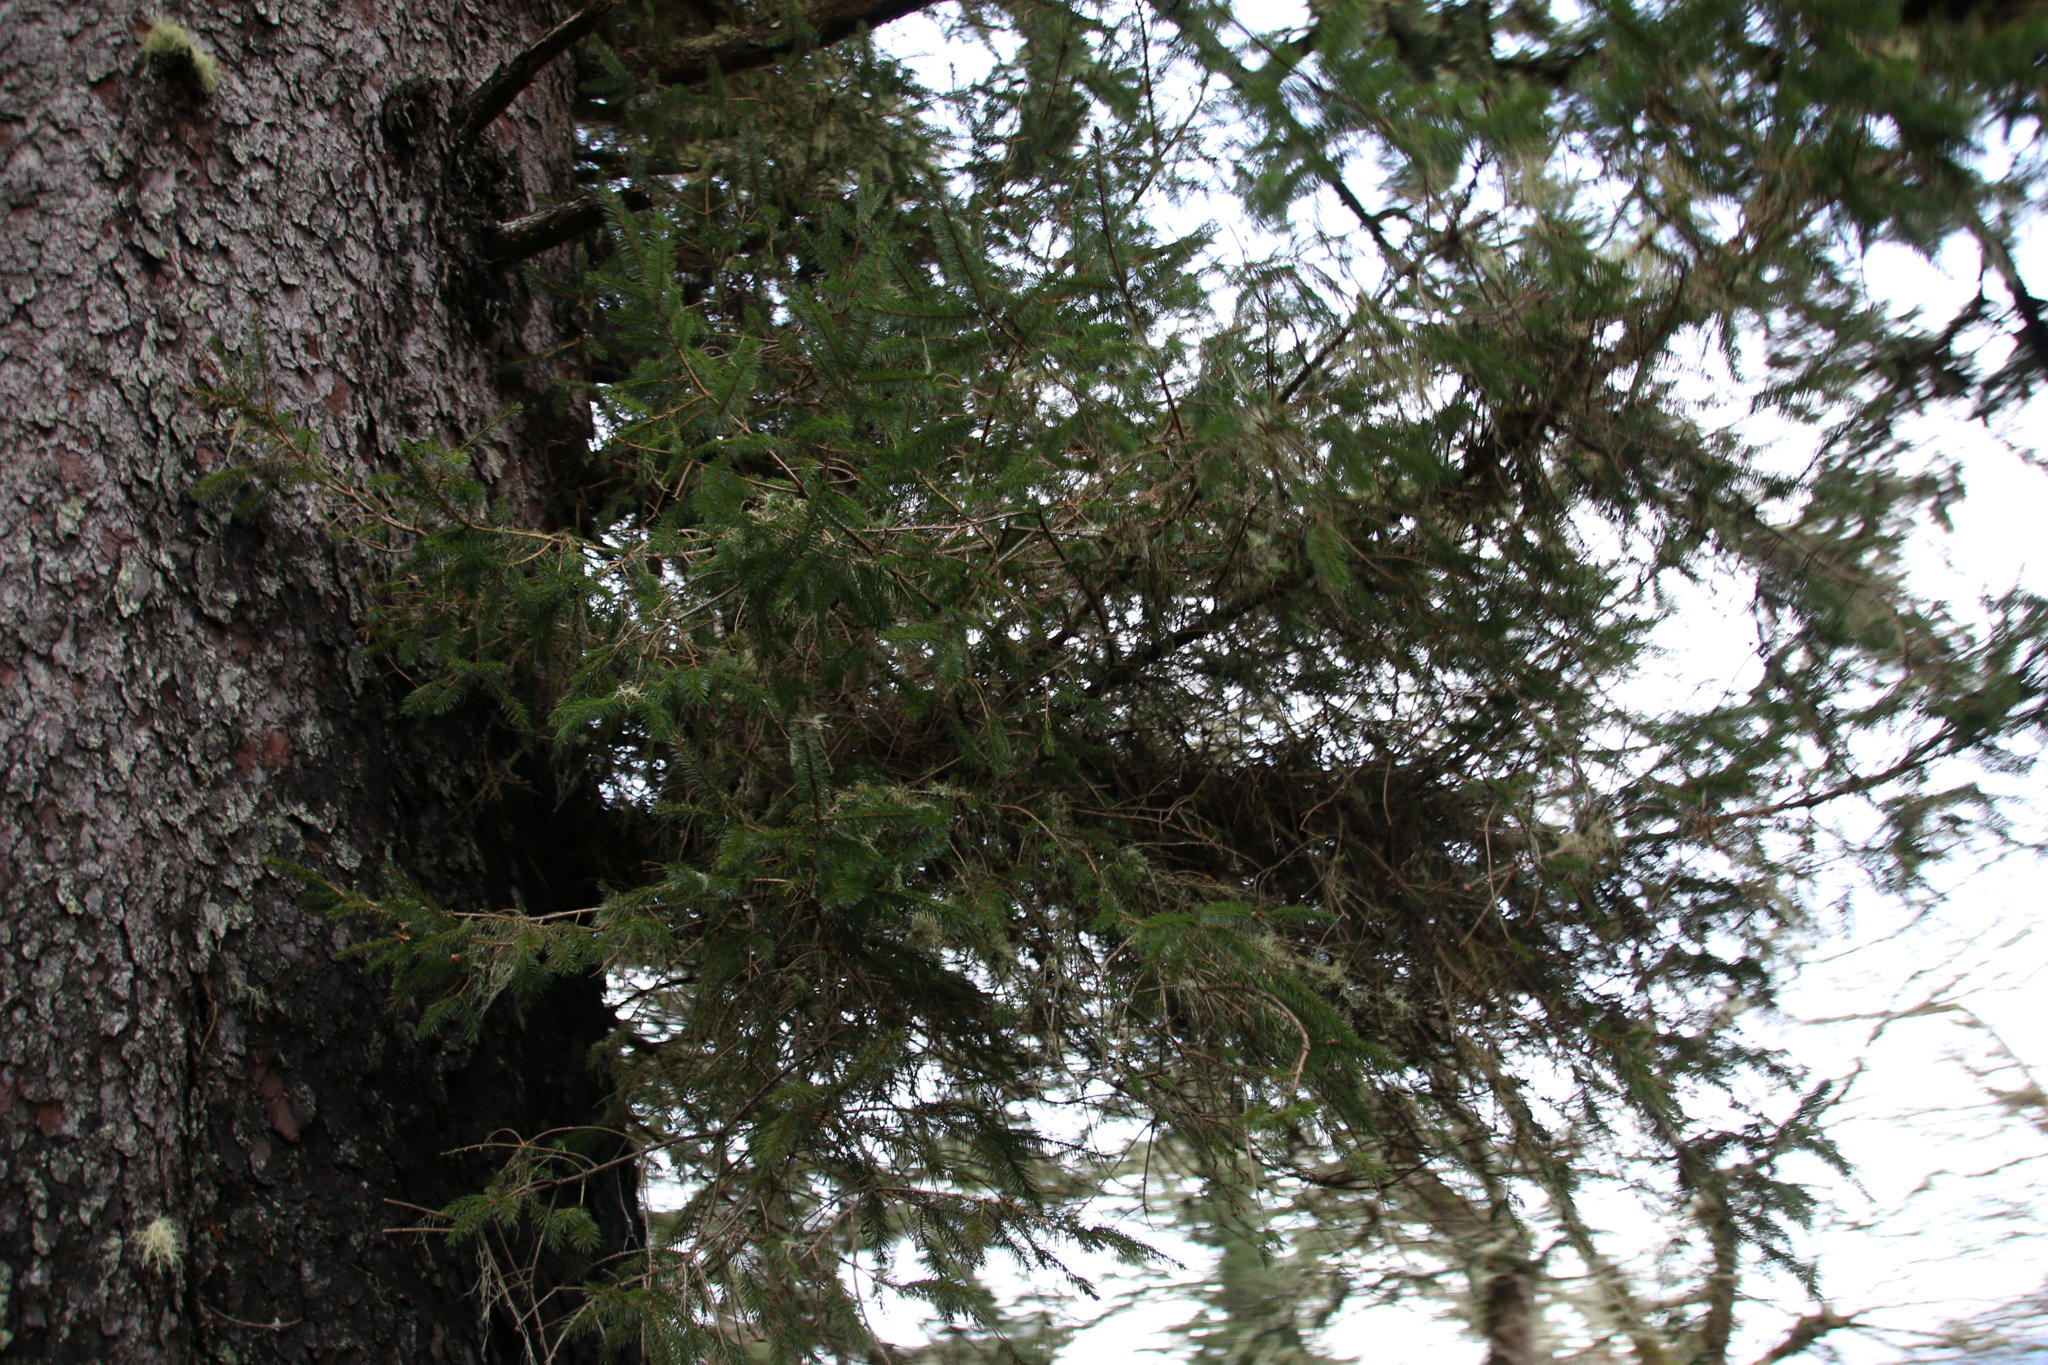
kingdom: Plantae
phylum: Tracheophyta
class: Pinopsida
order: Pinales
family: Pinaceae
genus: Picea
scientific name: Picea sitchensis
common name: Sitka spruce
